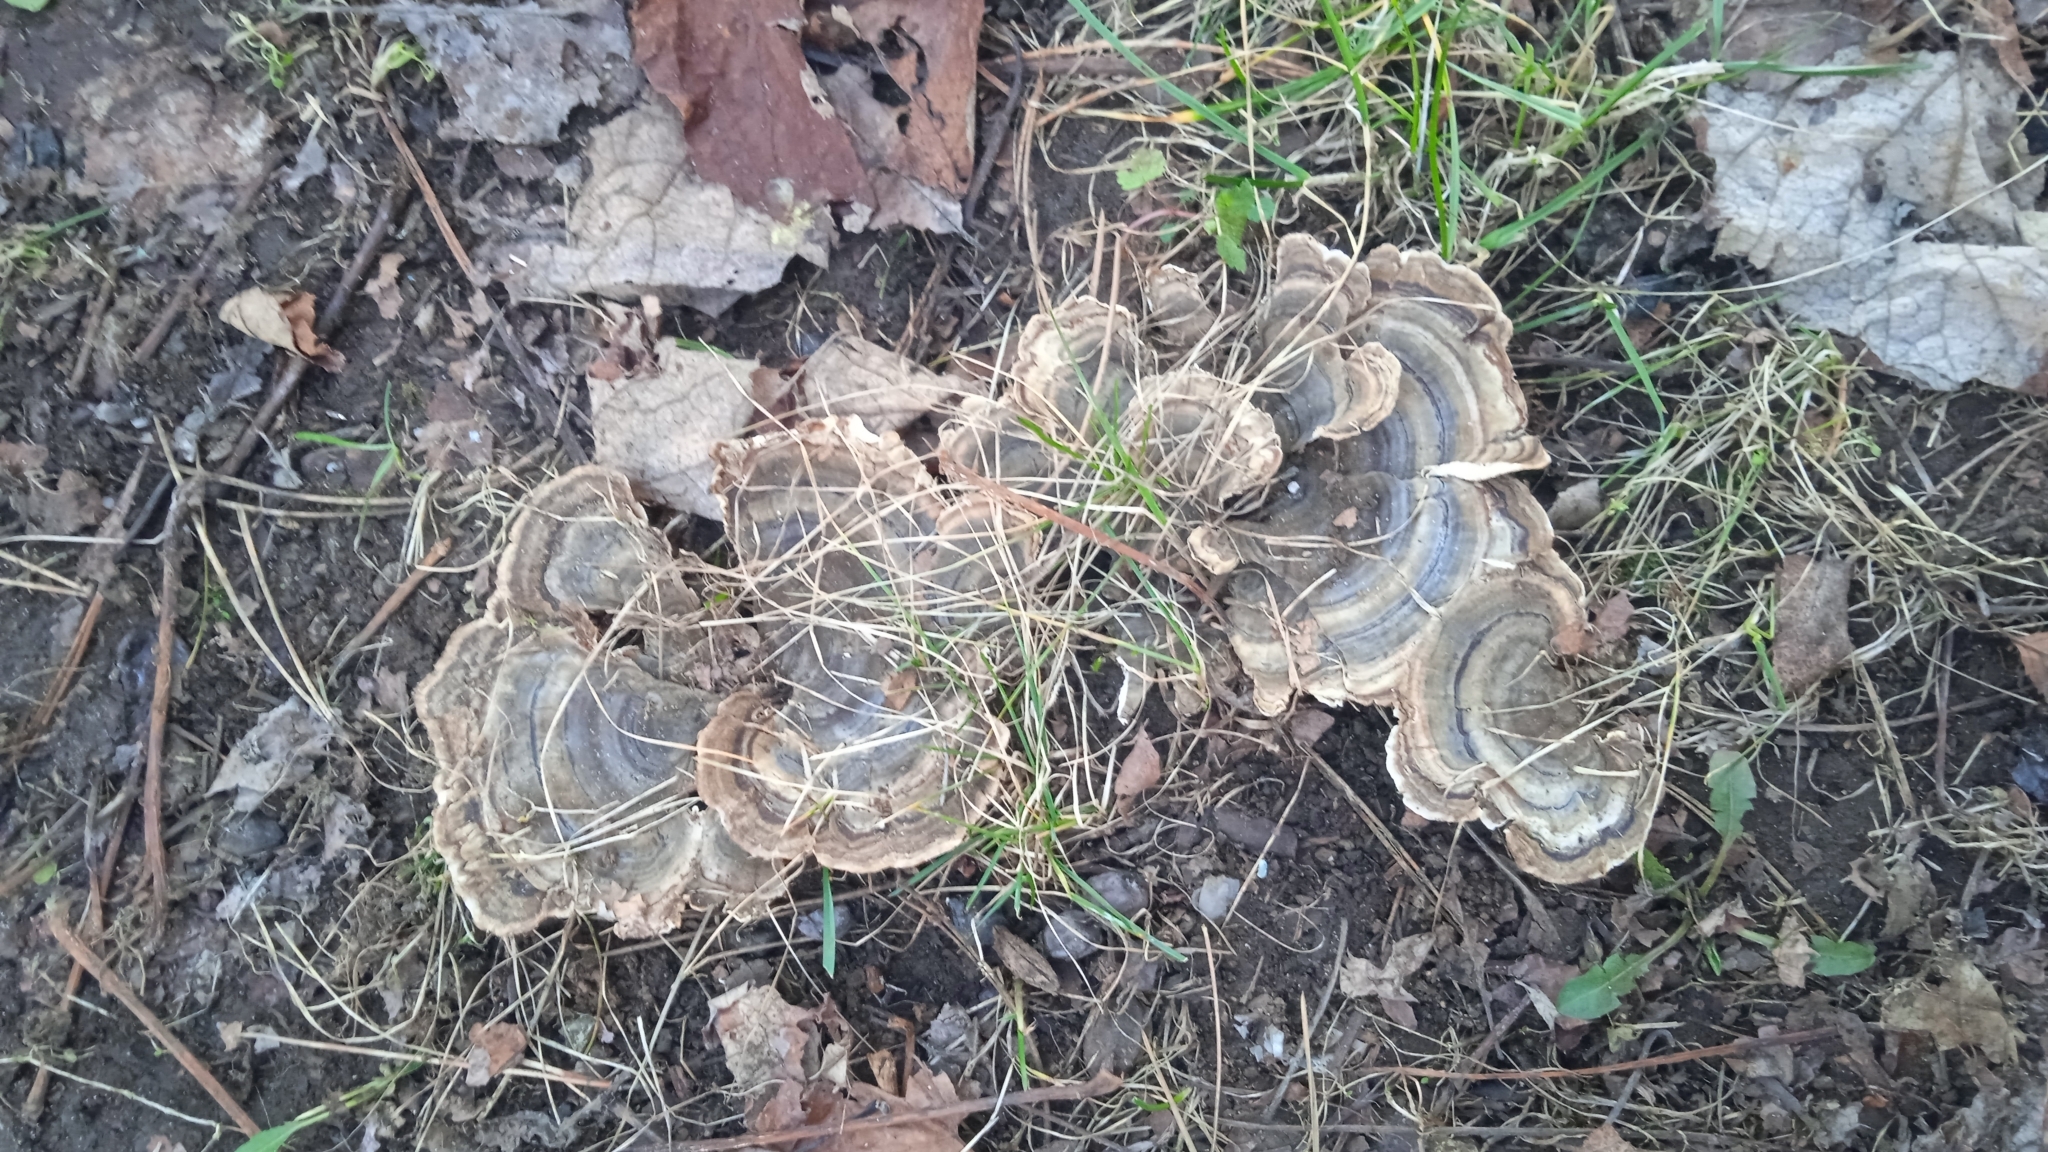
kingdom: Fungi
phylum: Basidiomycota
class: Agaricomycetes
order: Polyporales
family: Polyporaceae
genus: Trametes
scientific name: Trametes versicolor
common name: Turkeytail
